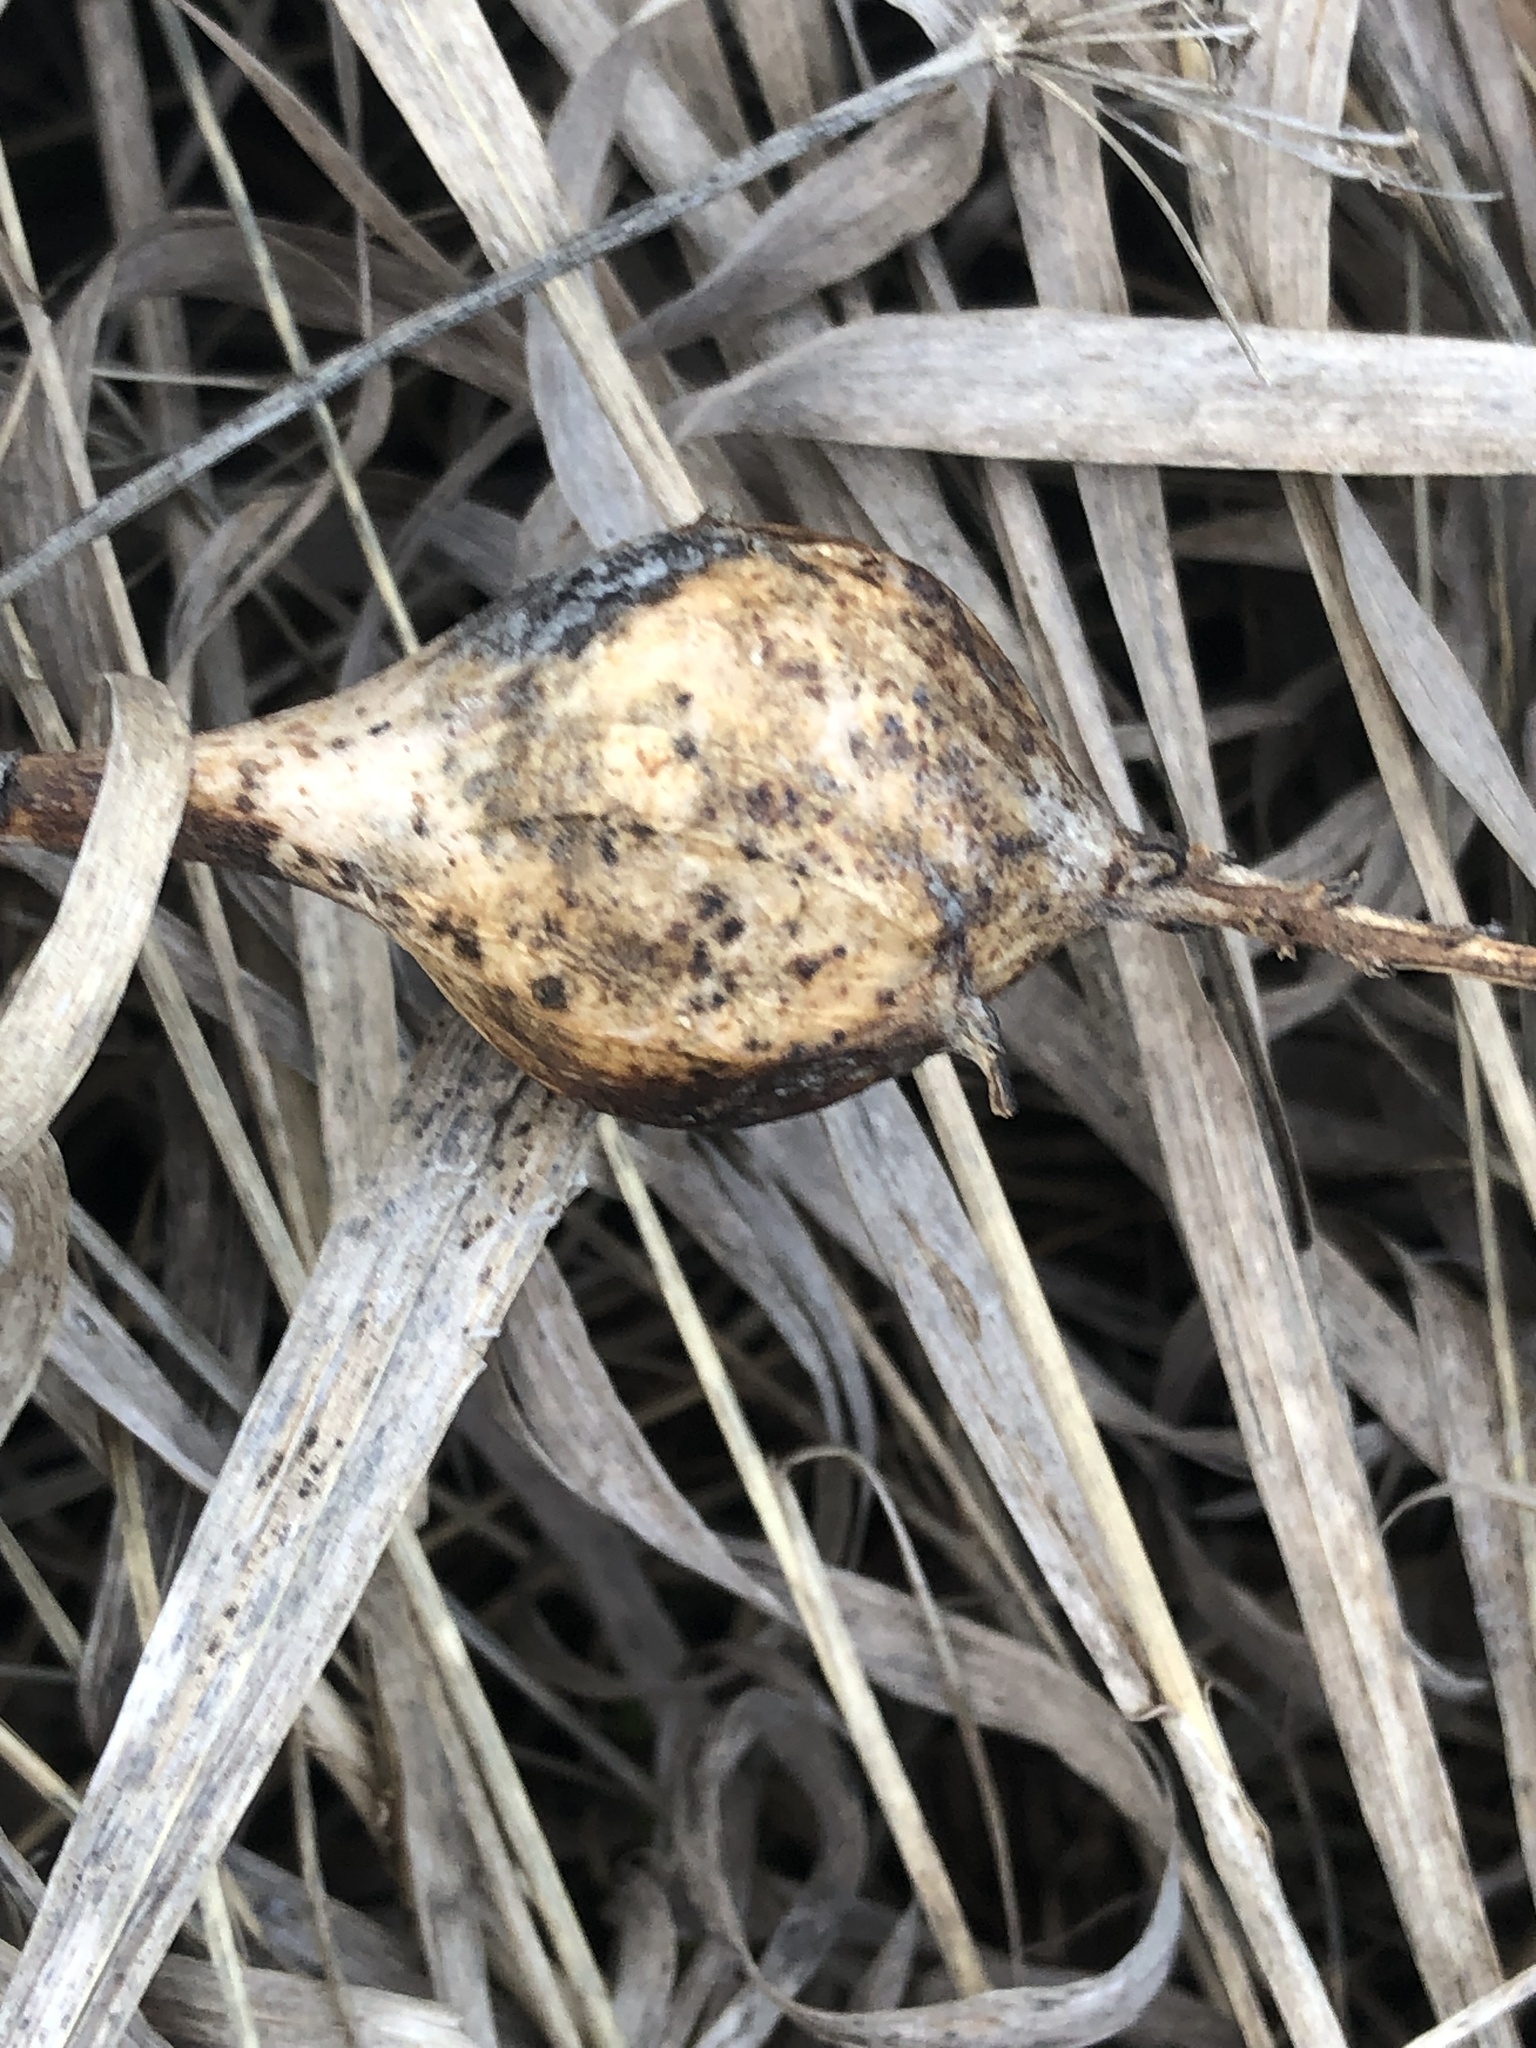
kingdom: Animalia
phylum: Arthropoda
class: Insecta
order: Diptera
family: Tephritidae
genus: Eurosta
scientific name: Eurosta solidaginis
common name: Goldenrod gall fly
